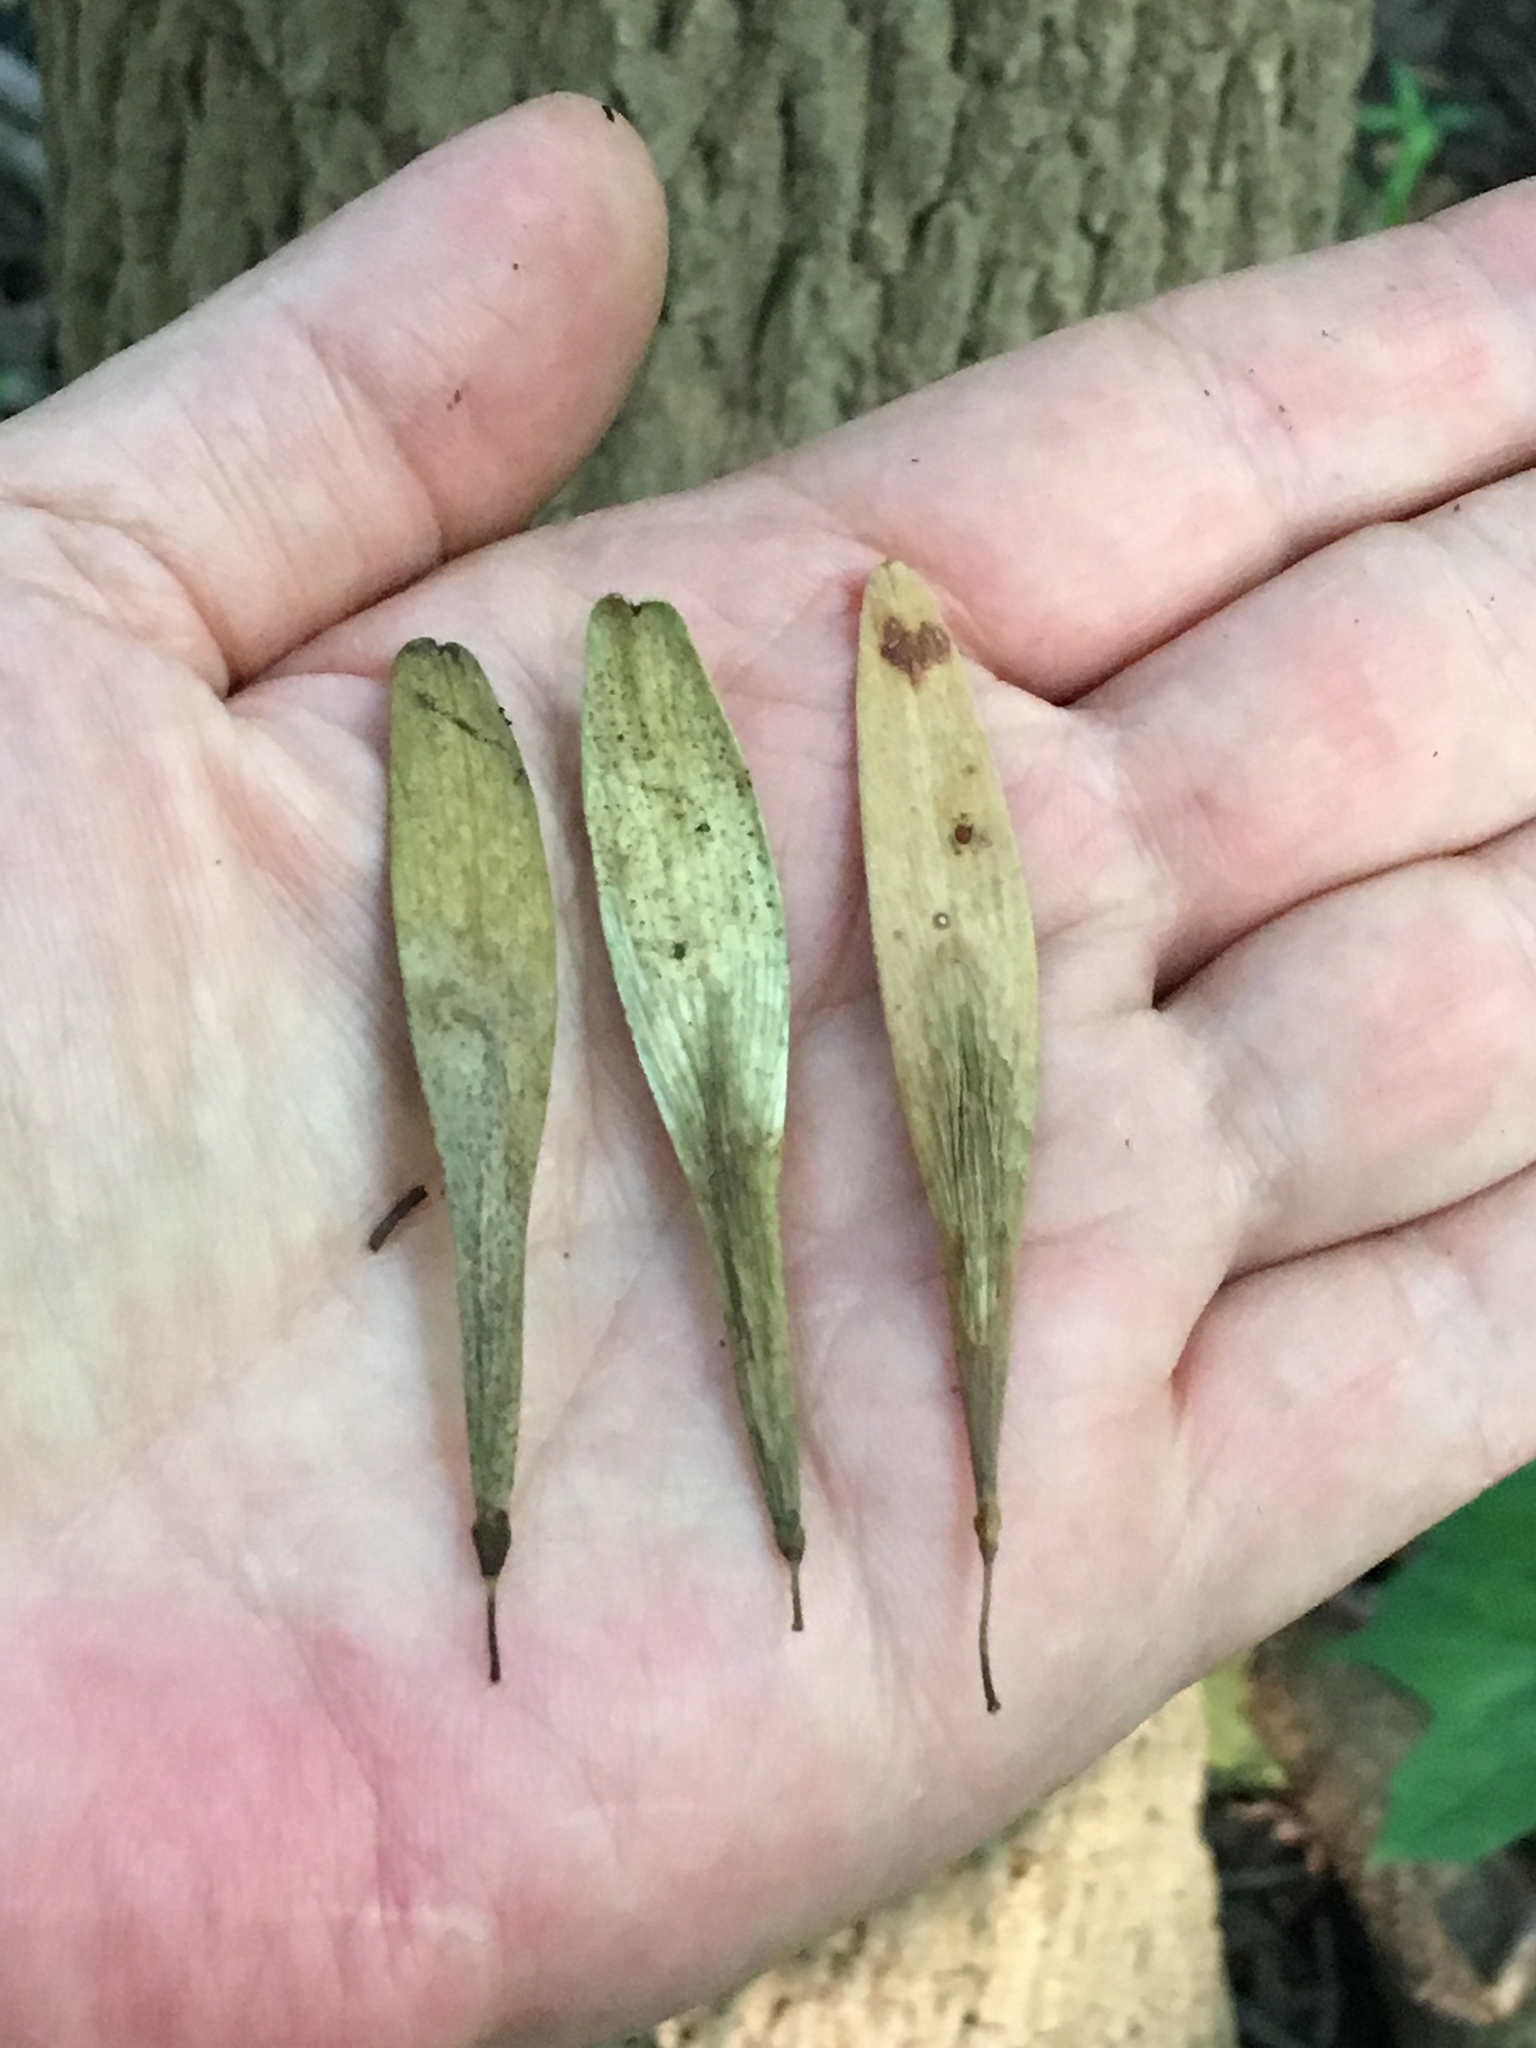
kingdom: Plantae
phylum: Tracheophyta
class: Magnoliopsida
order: Lamiales
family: Oleaceae
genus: Fraxinus
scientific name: Fraxinus profunda
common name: Pumpkin ash
